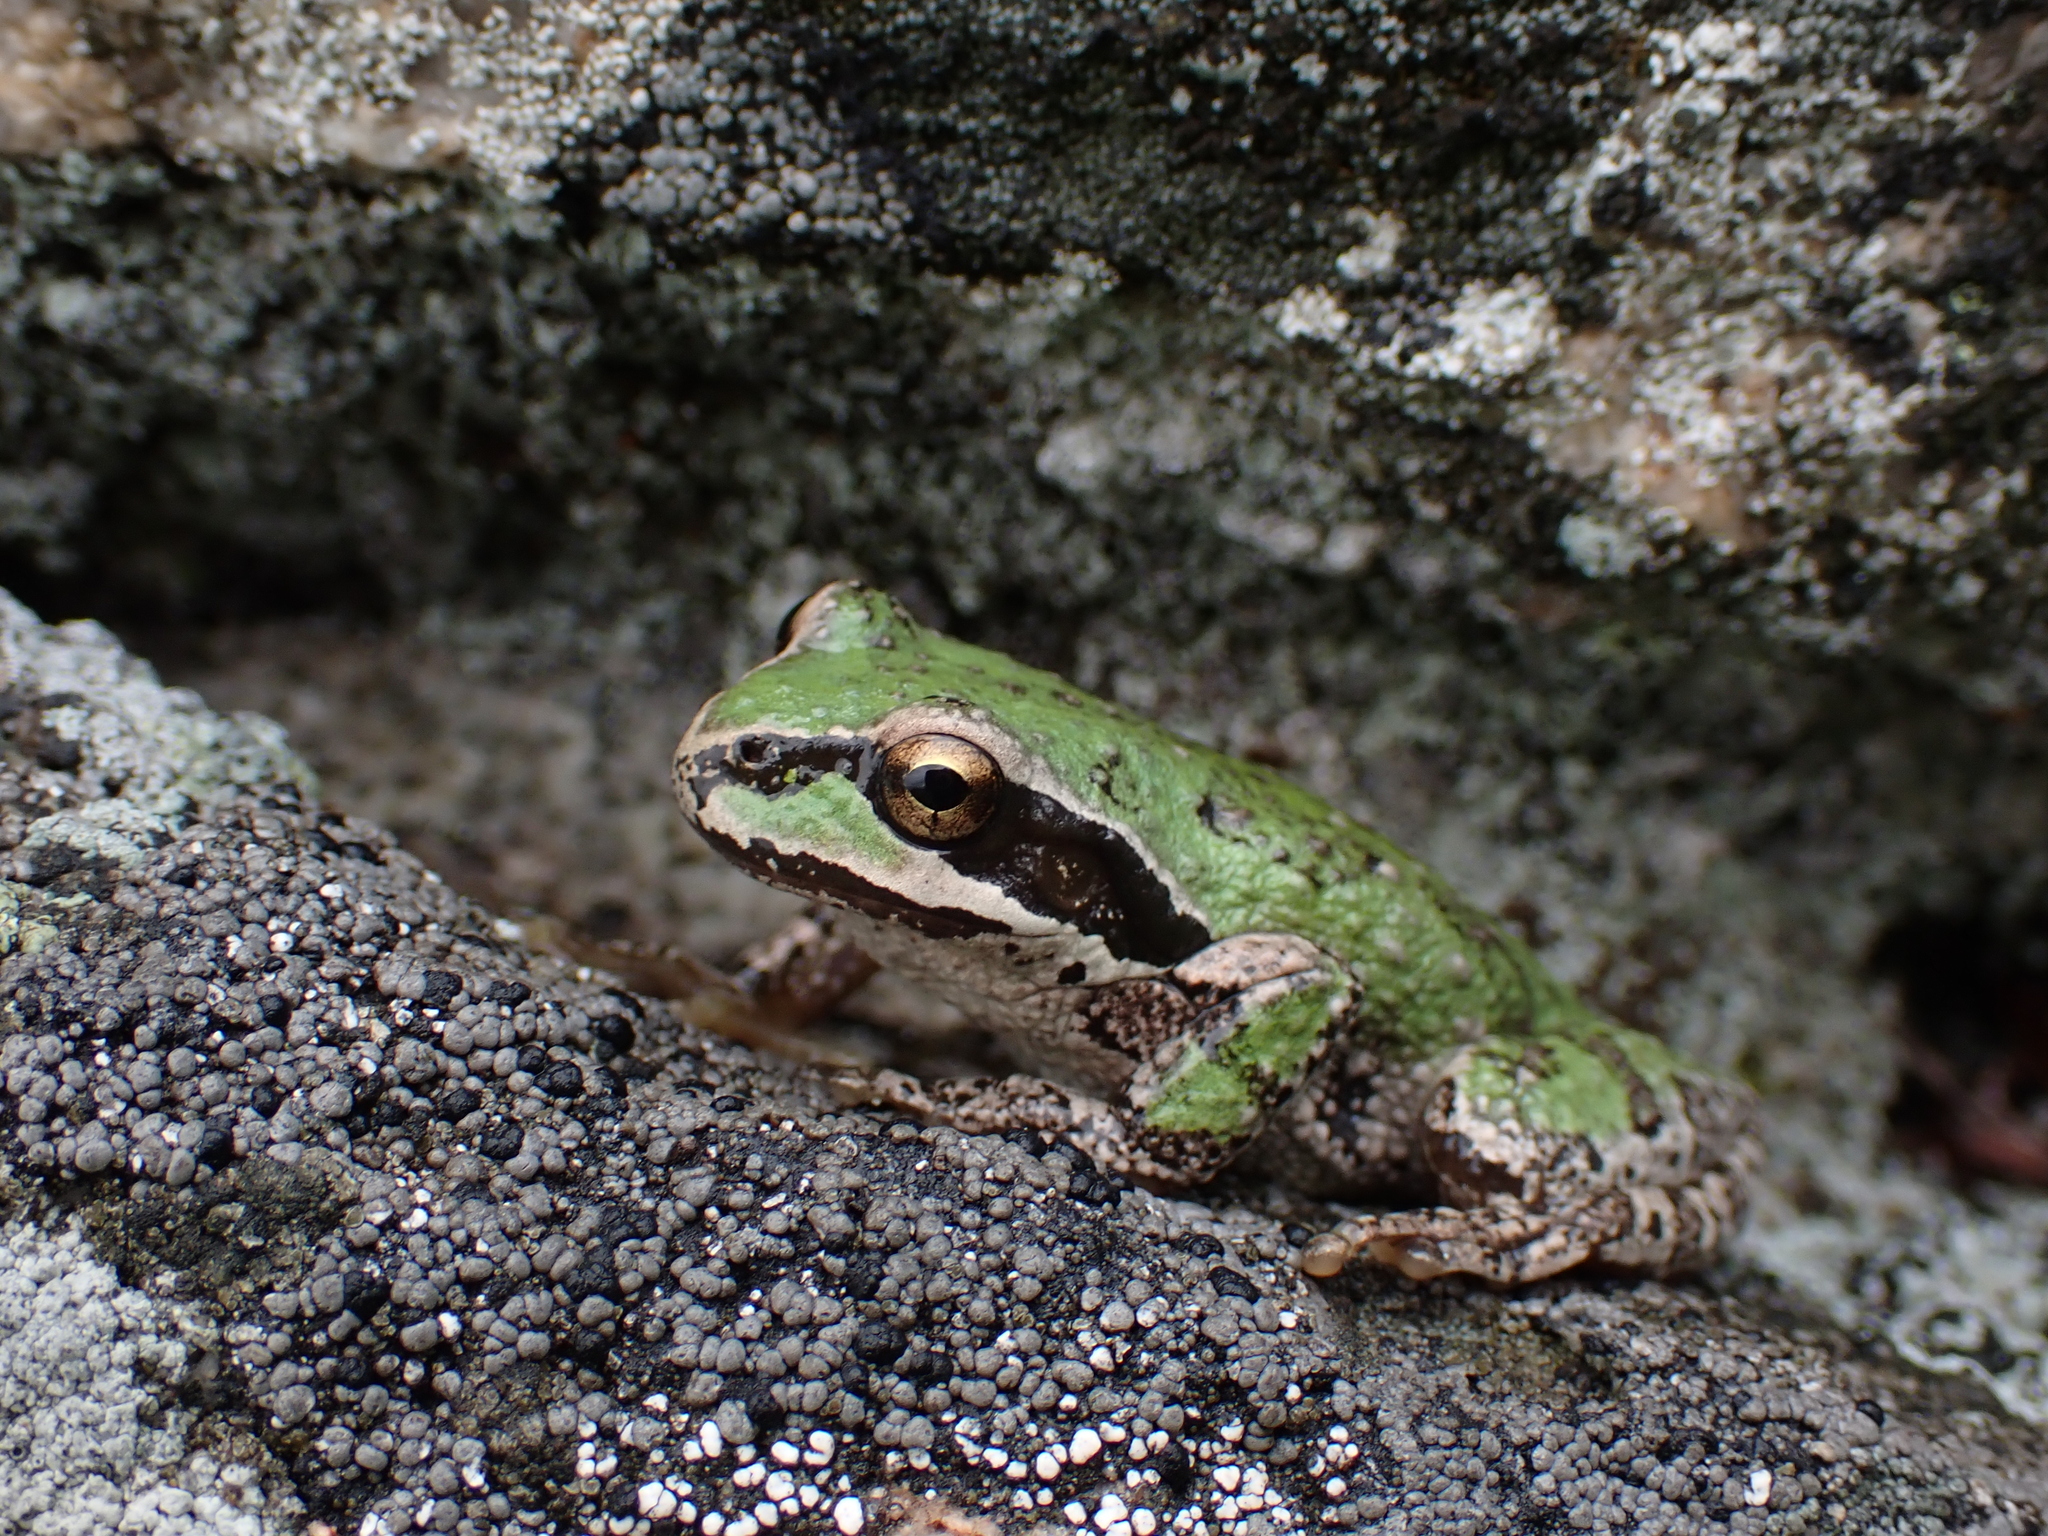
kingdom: Animalia
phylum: Chordata
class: Amphibia
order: Anura
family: Hylidae
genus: Pseudacris
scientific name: Pseudacris regilla
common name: Pacific chorus frog
